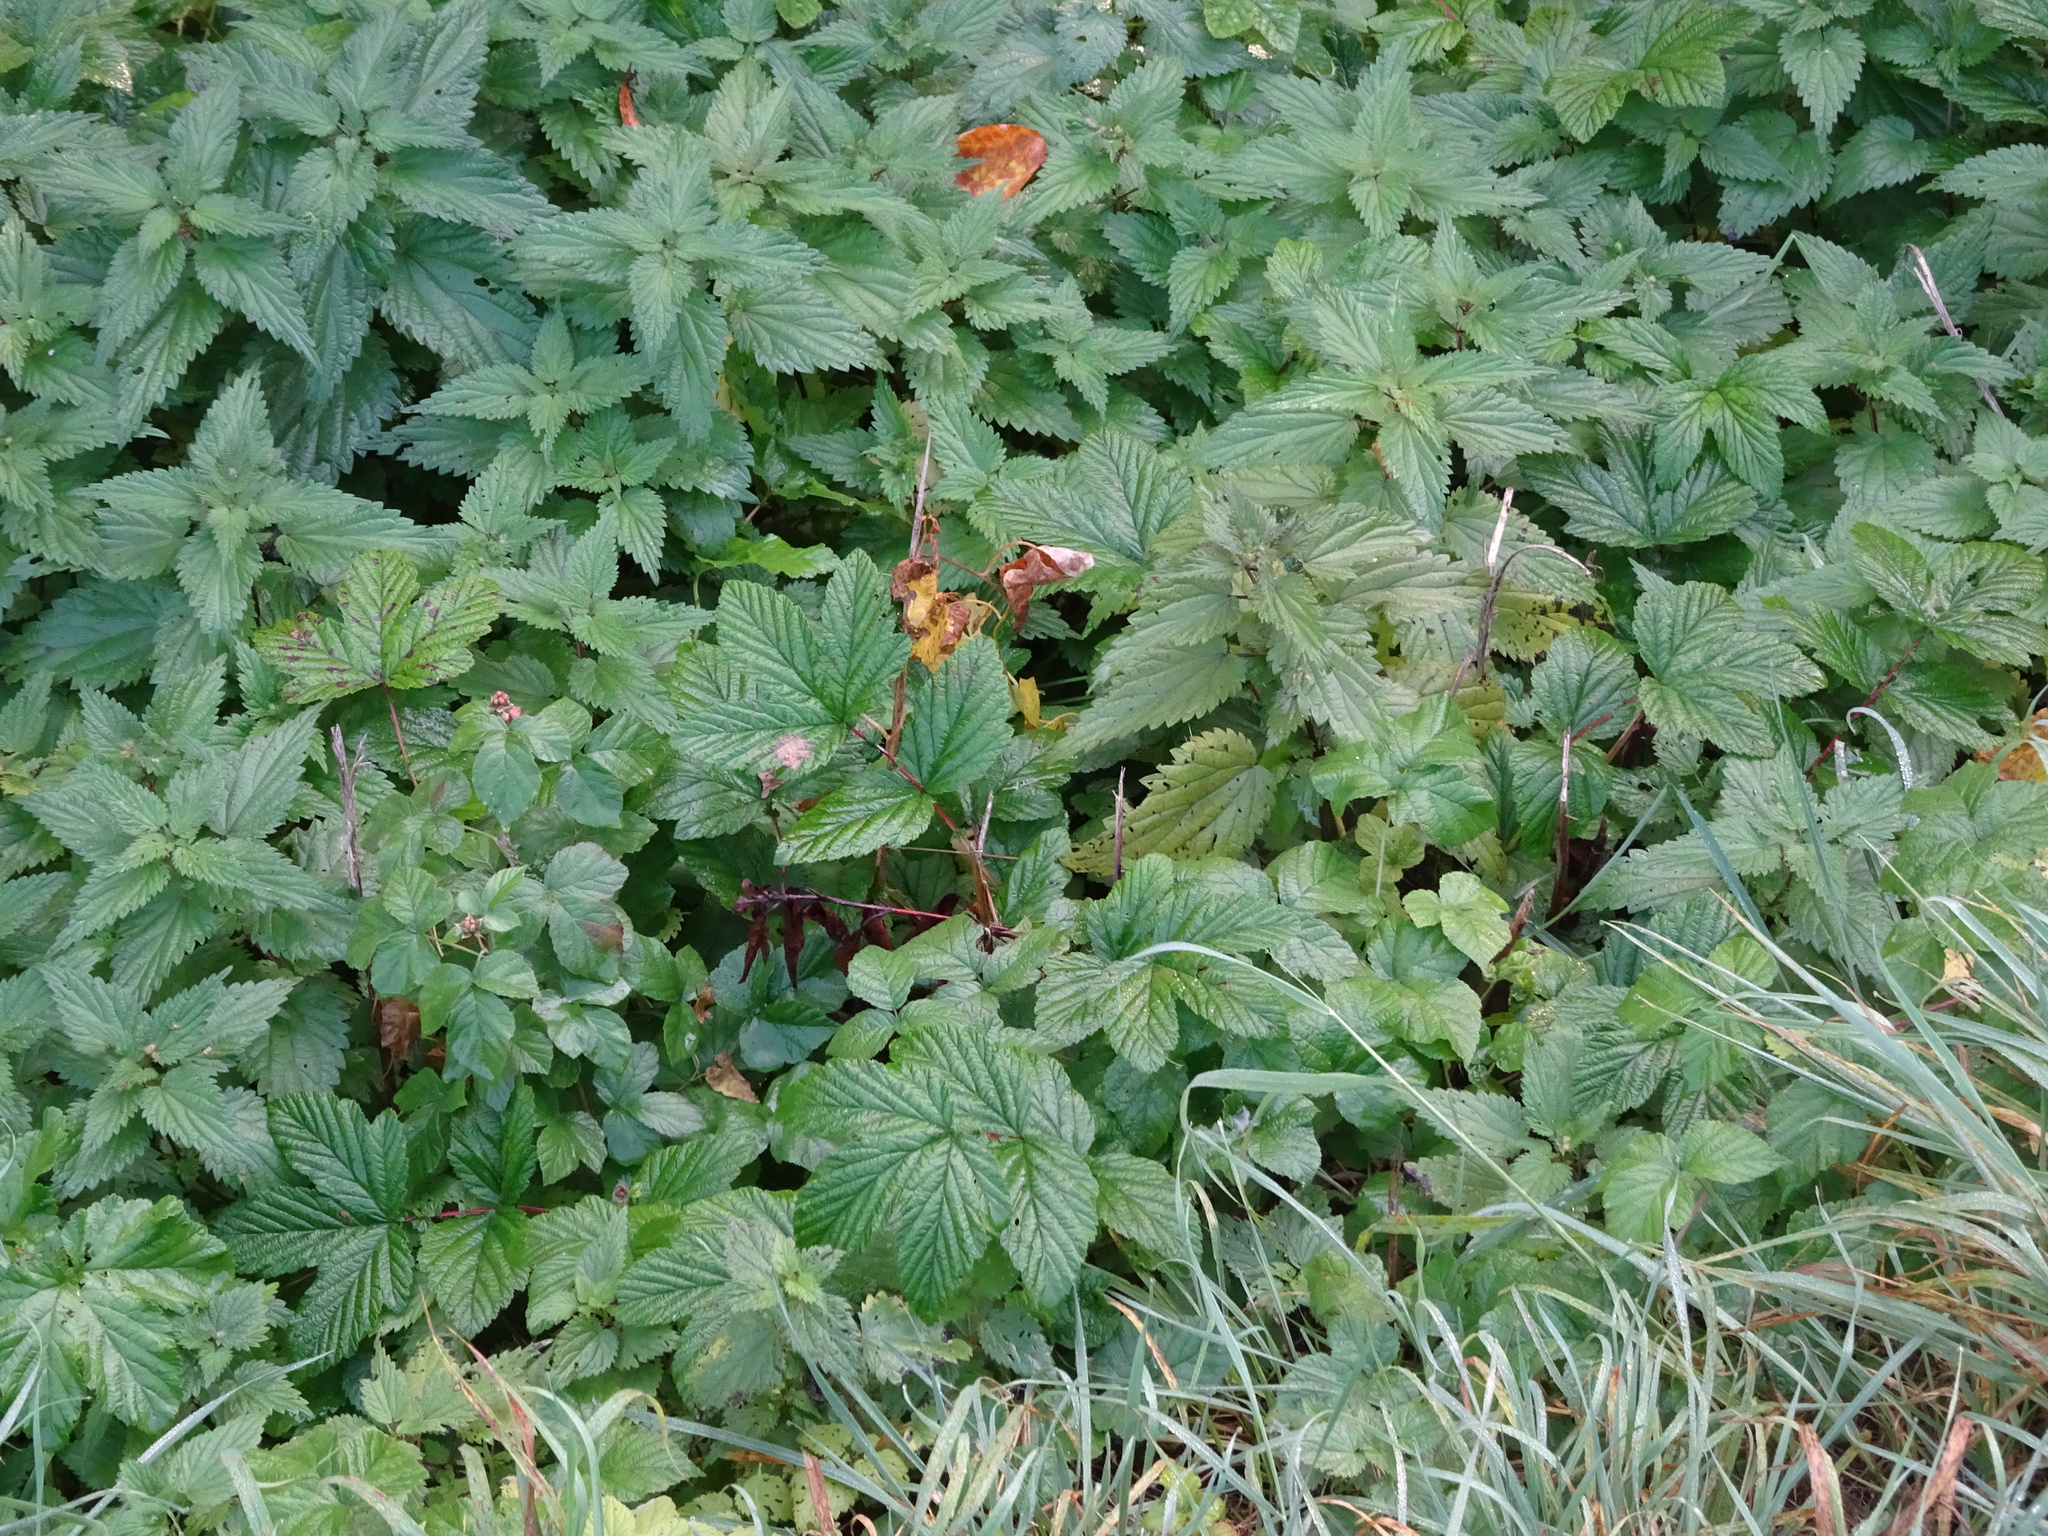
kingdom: Plantae
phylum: Tracheophyta
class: Magnoliopsida
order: Rosales
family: Rosaceae
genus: Filipendula
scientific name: Filipendula ulmaria
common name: Meadowsweet
